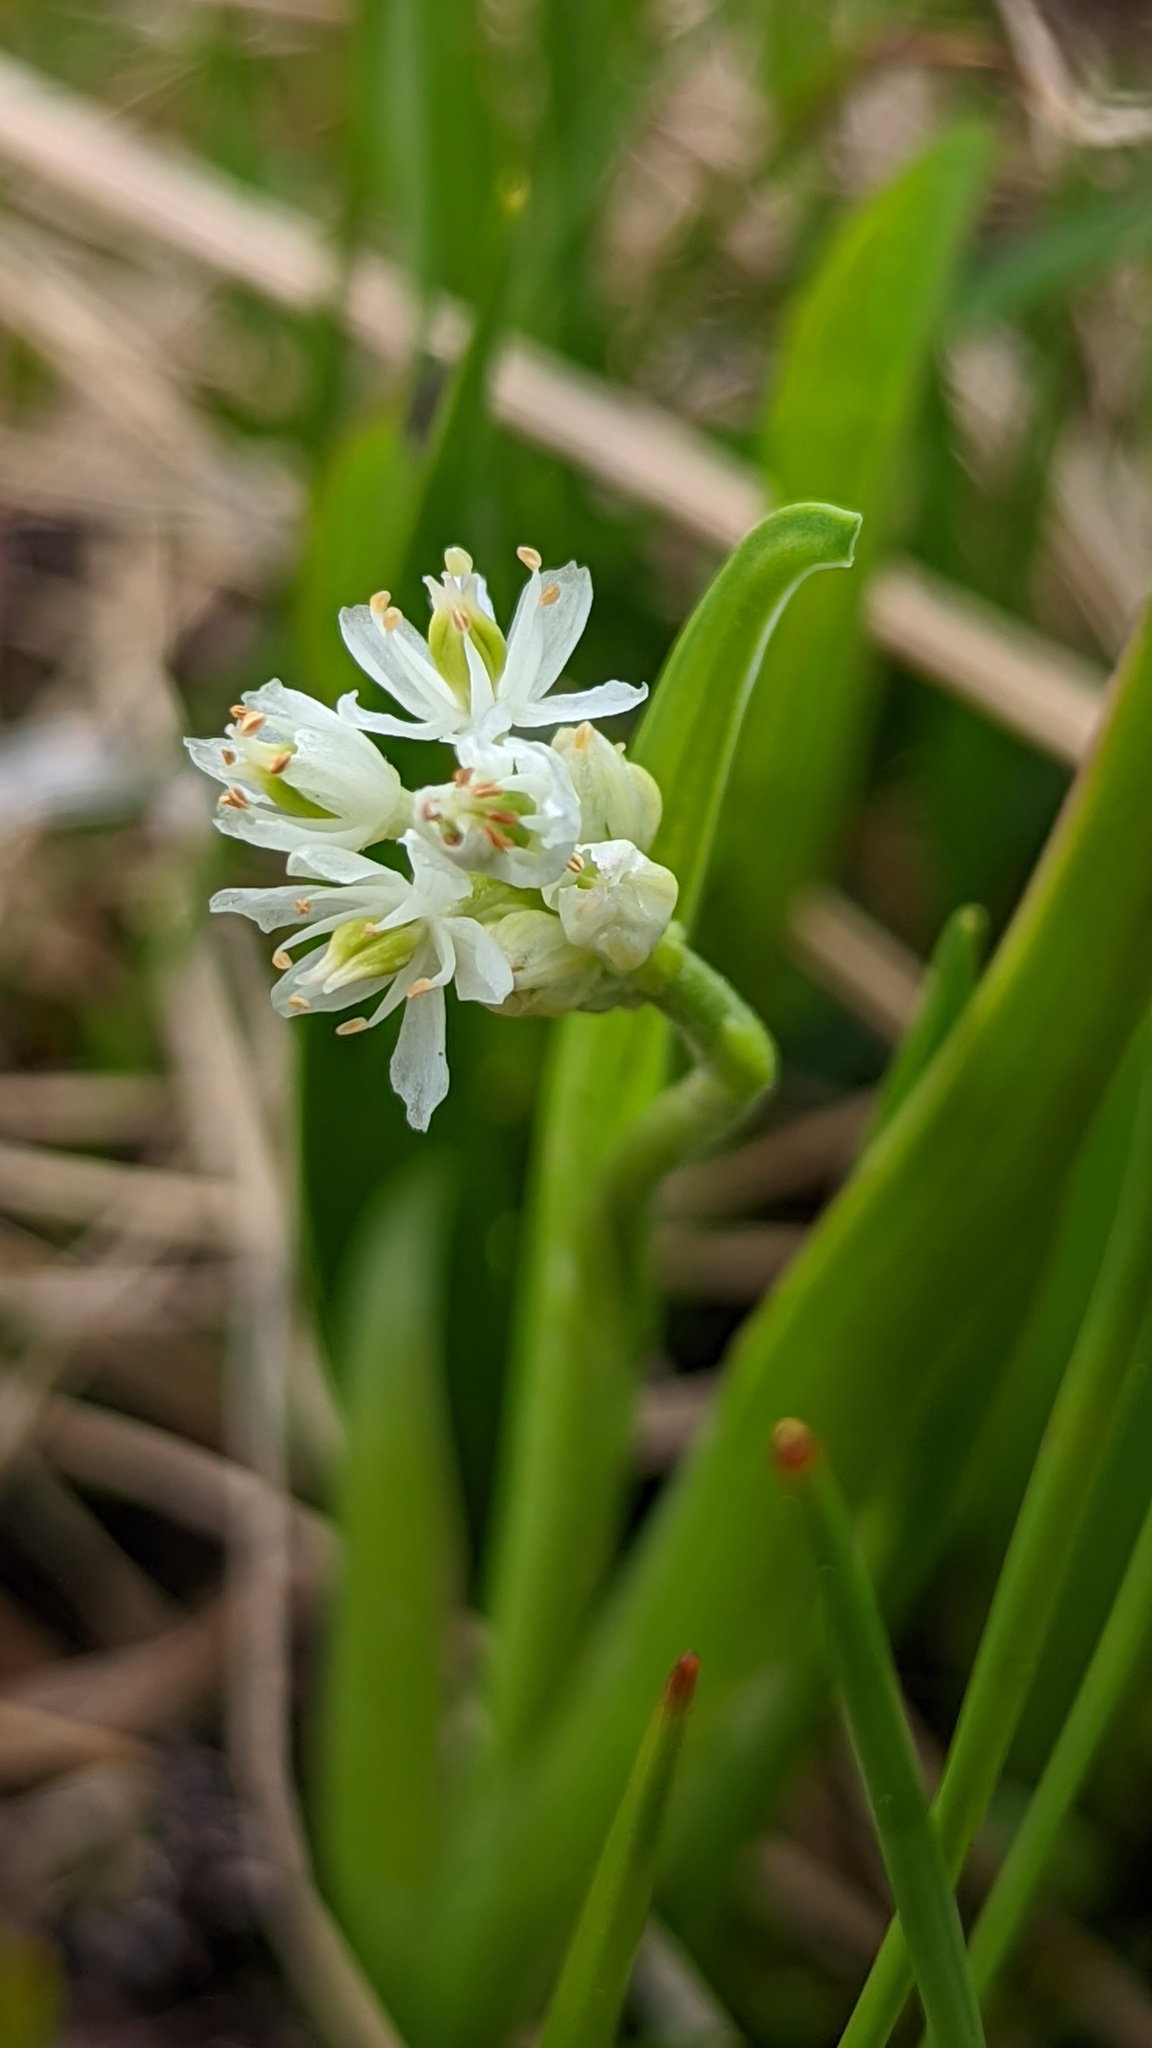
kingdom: Plantae
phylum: Tracheophyta
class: Liliopsida
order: Alismatales
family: Tofieldiaceae
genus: Triantha
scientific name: Triantha glutinosa
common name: Glutinous tofieldia
